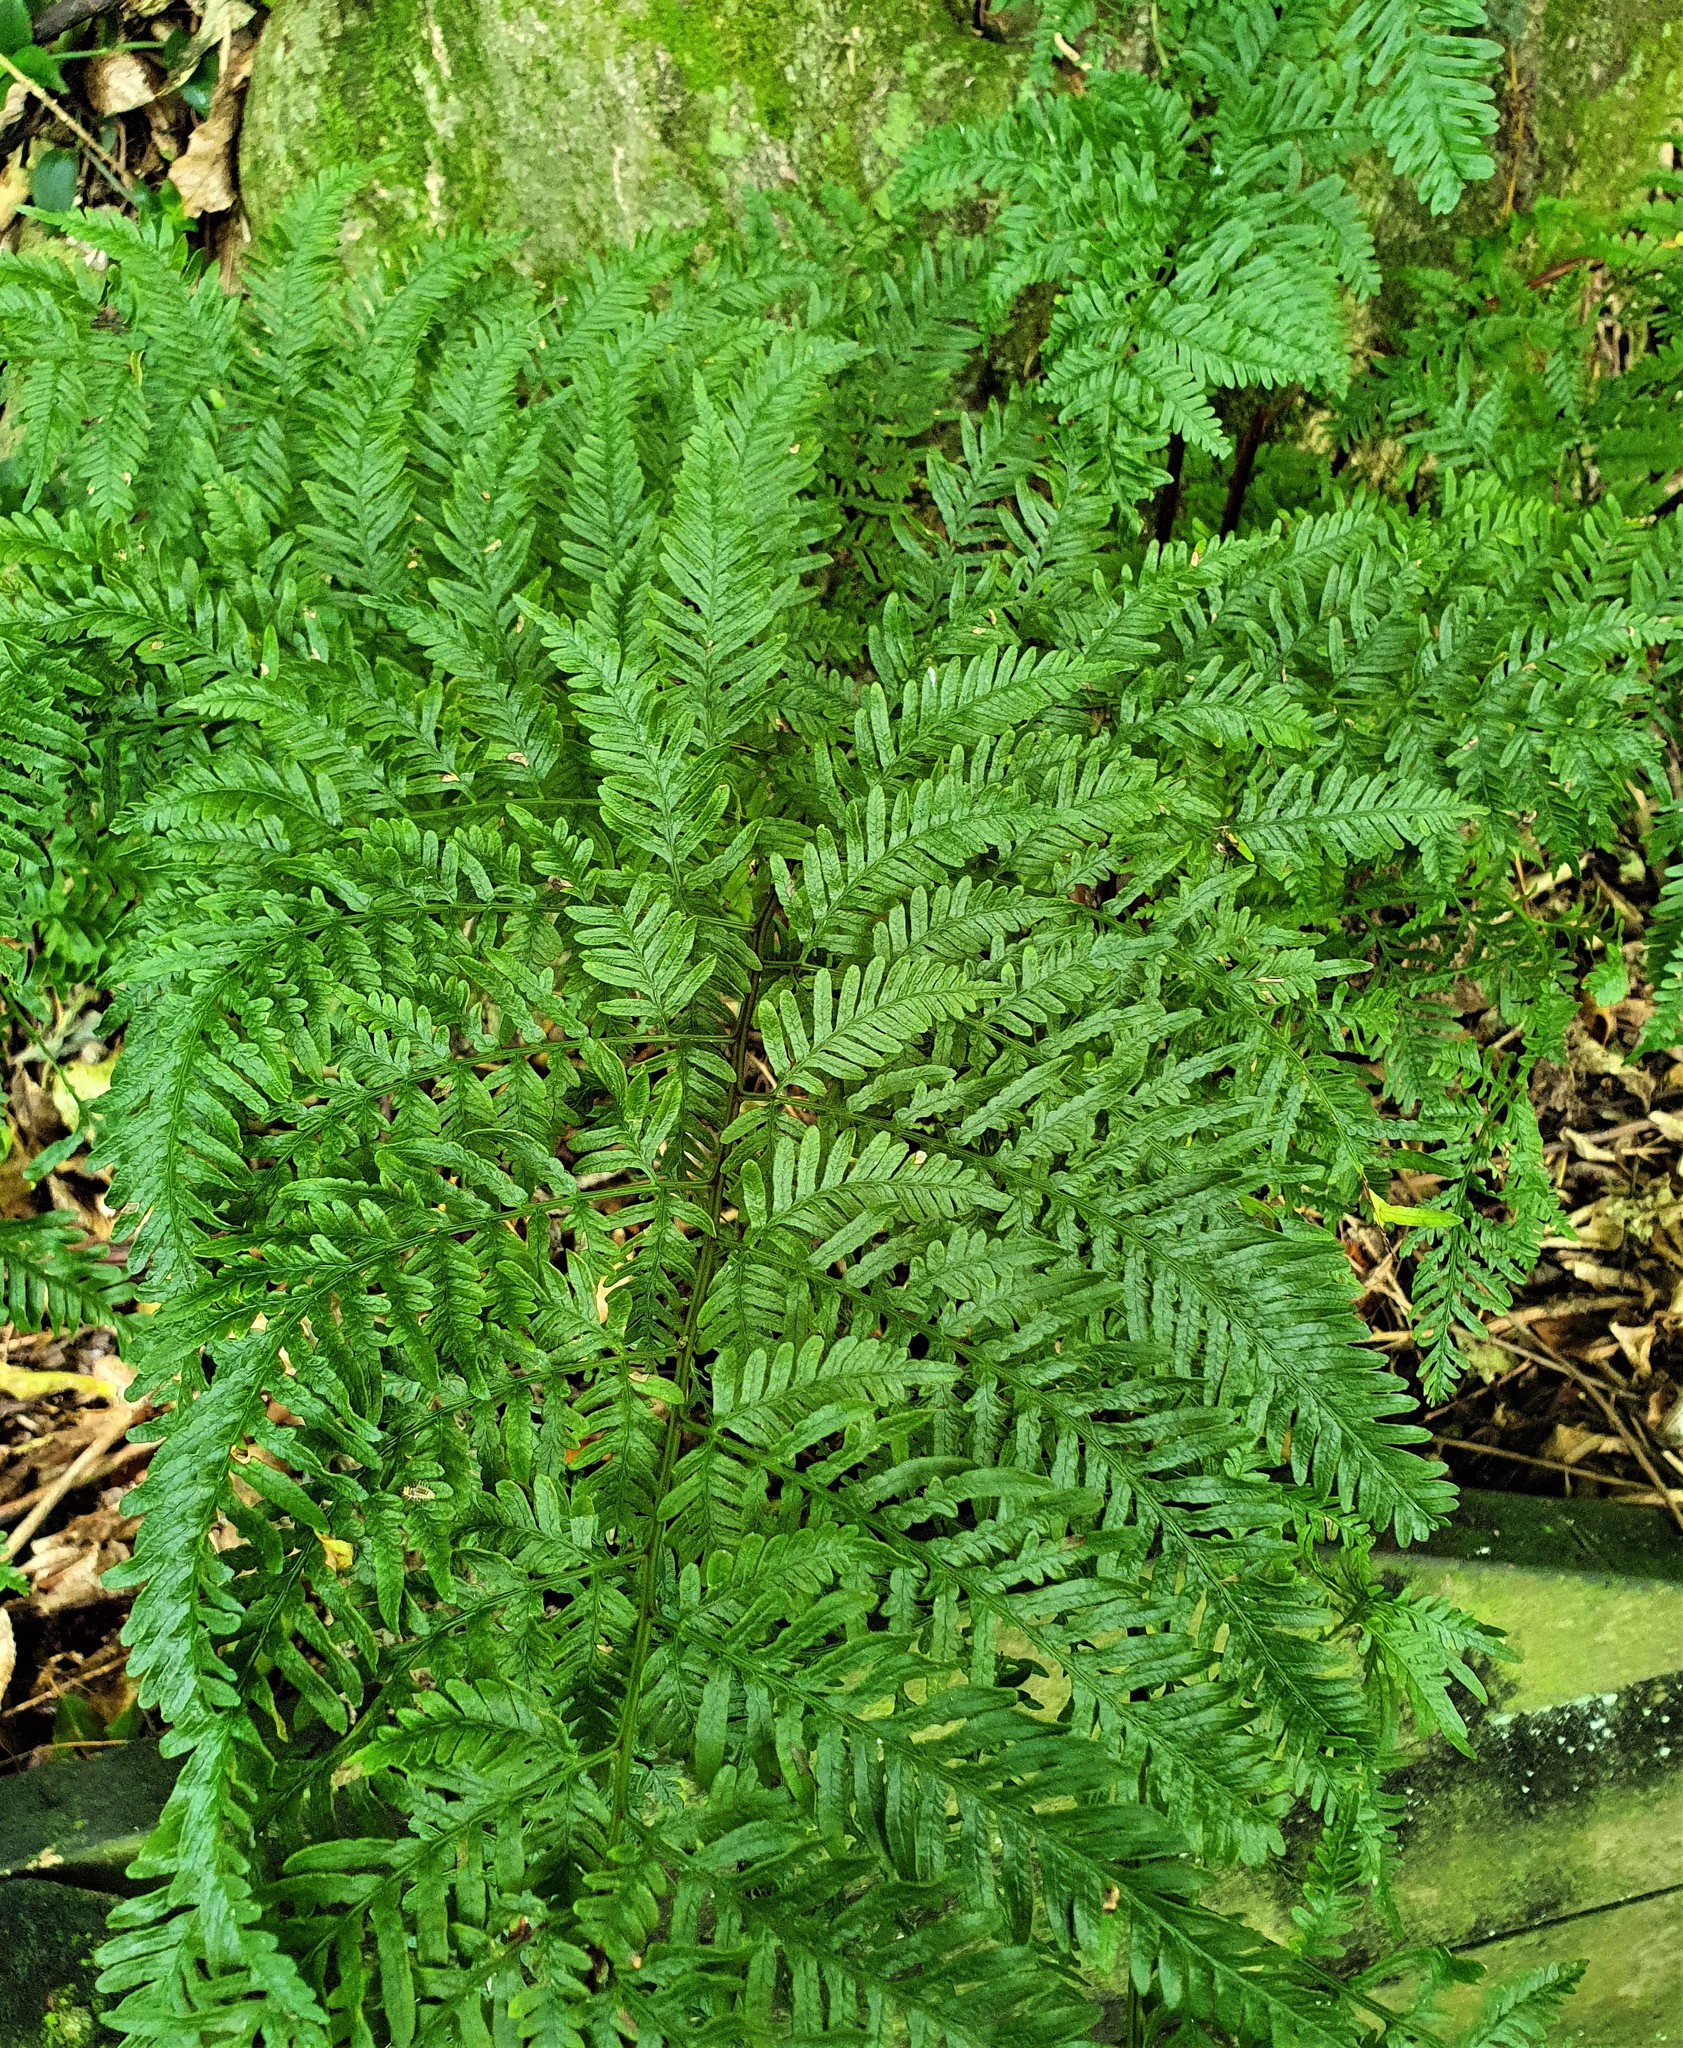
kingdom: Plantae
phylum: Tracheophyta
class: Polypodiopsida
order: Polypodiales
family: Pteridaceae
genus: Pteris
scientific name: Pteris tremula
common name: Australian brake
